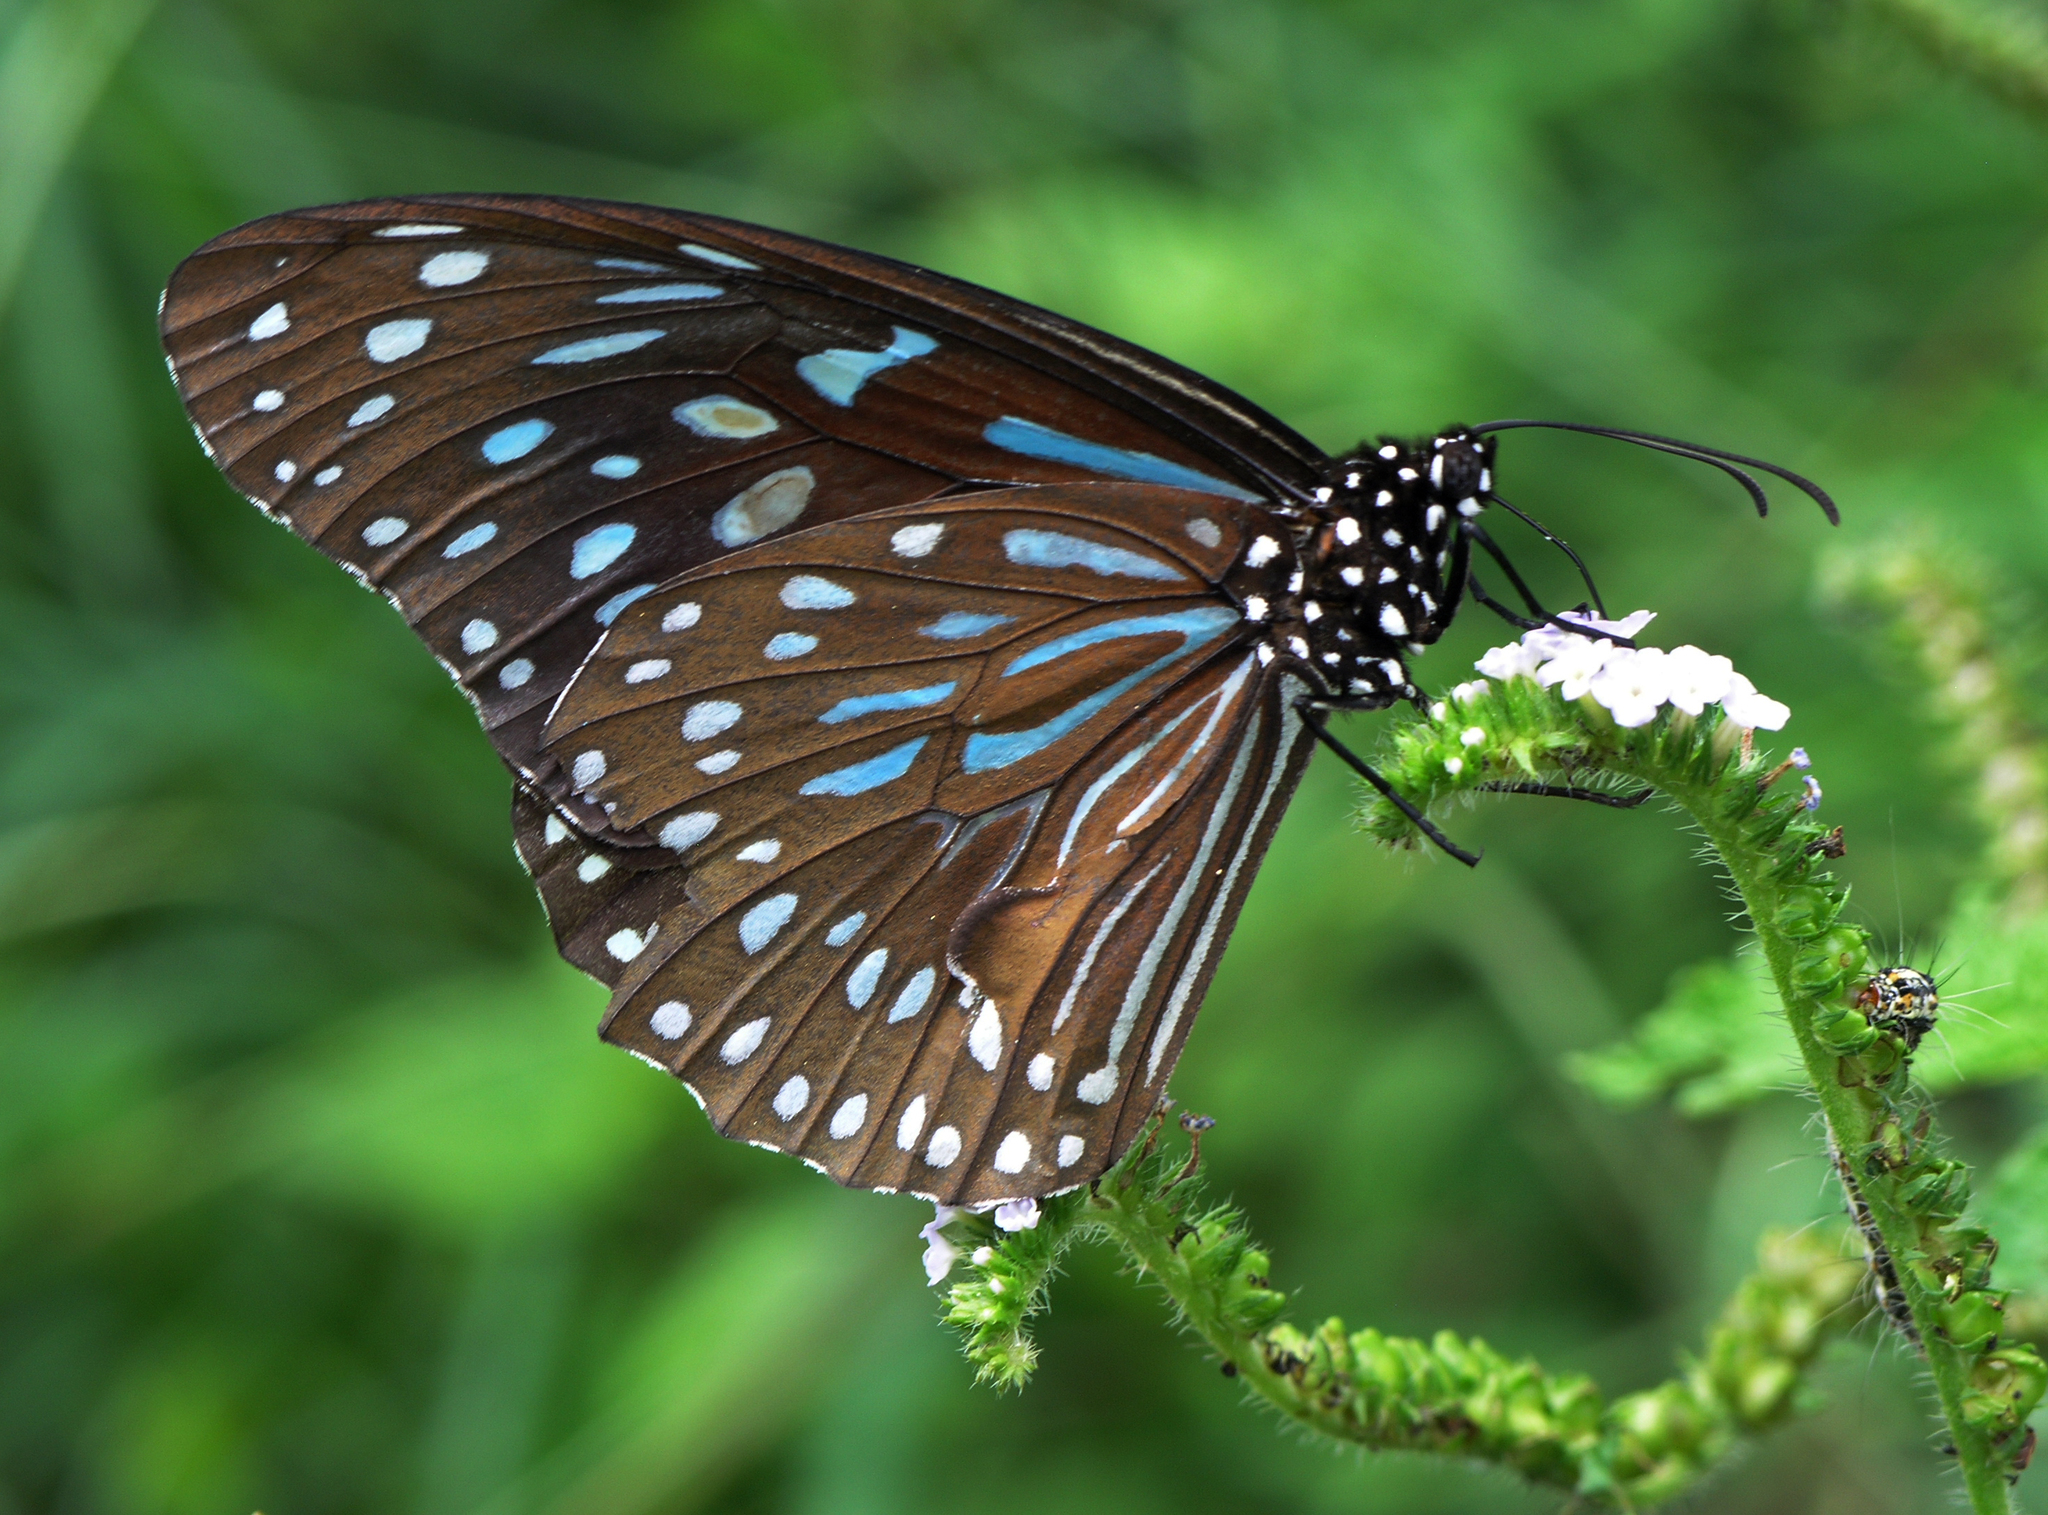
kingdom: Animalia
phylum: Arthropoda
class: Insecta
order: Lepidoptera
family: Nymphalidae
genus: Tirumala
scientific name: Tirumala septentrionis
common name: Dark blue tiger butterfly
